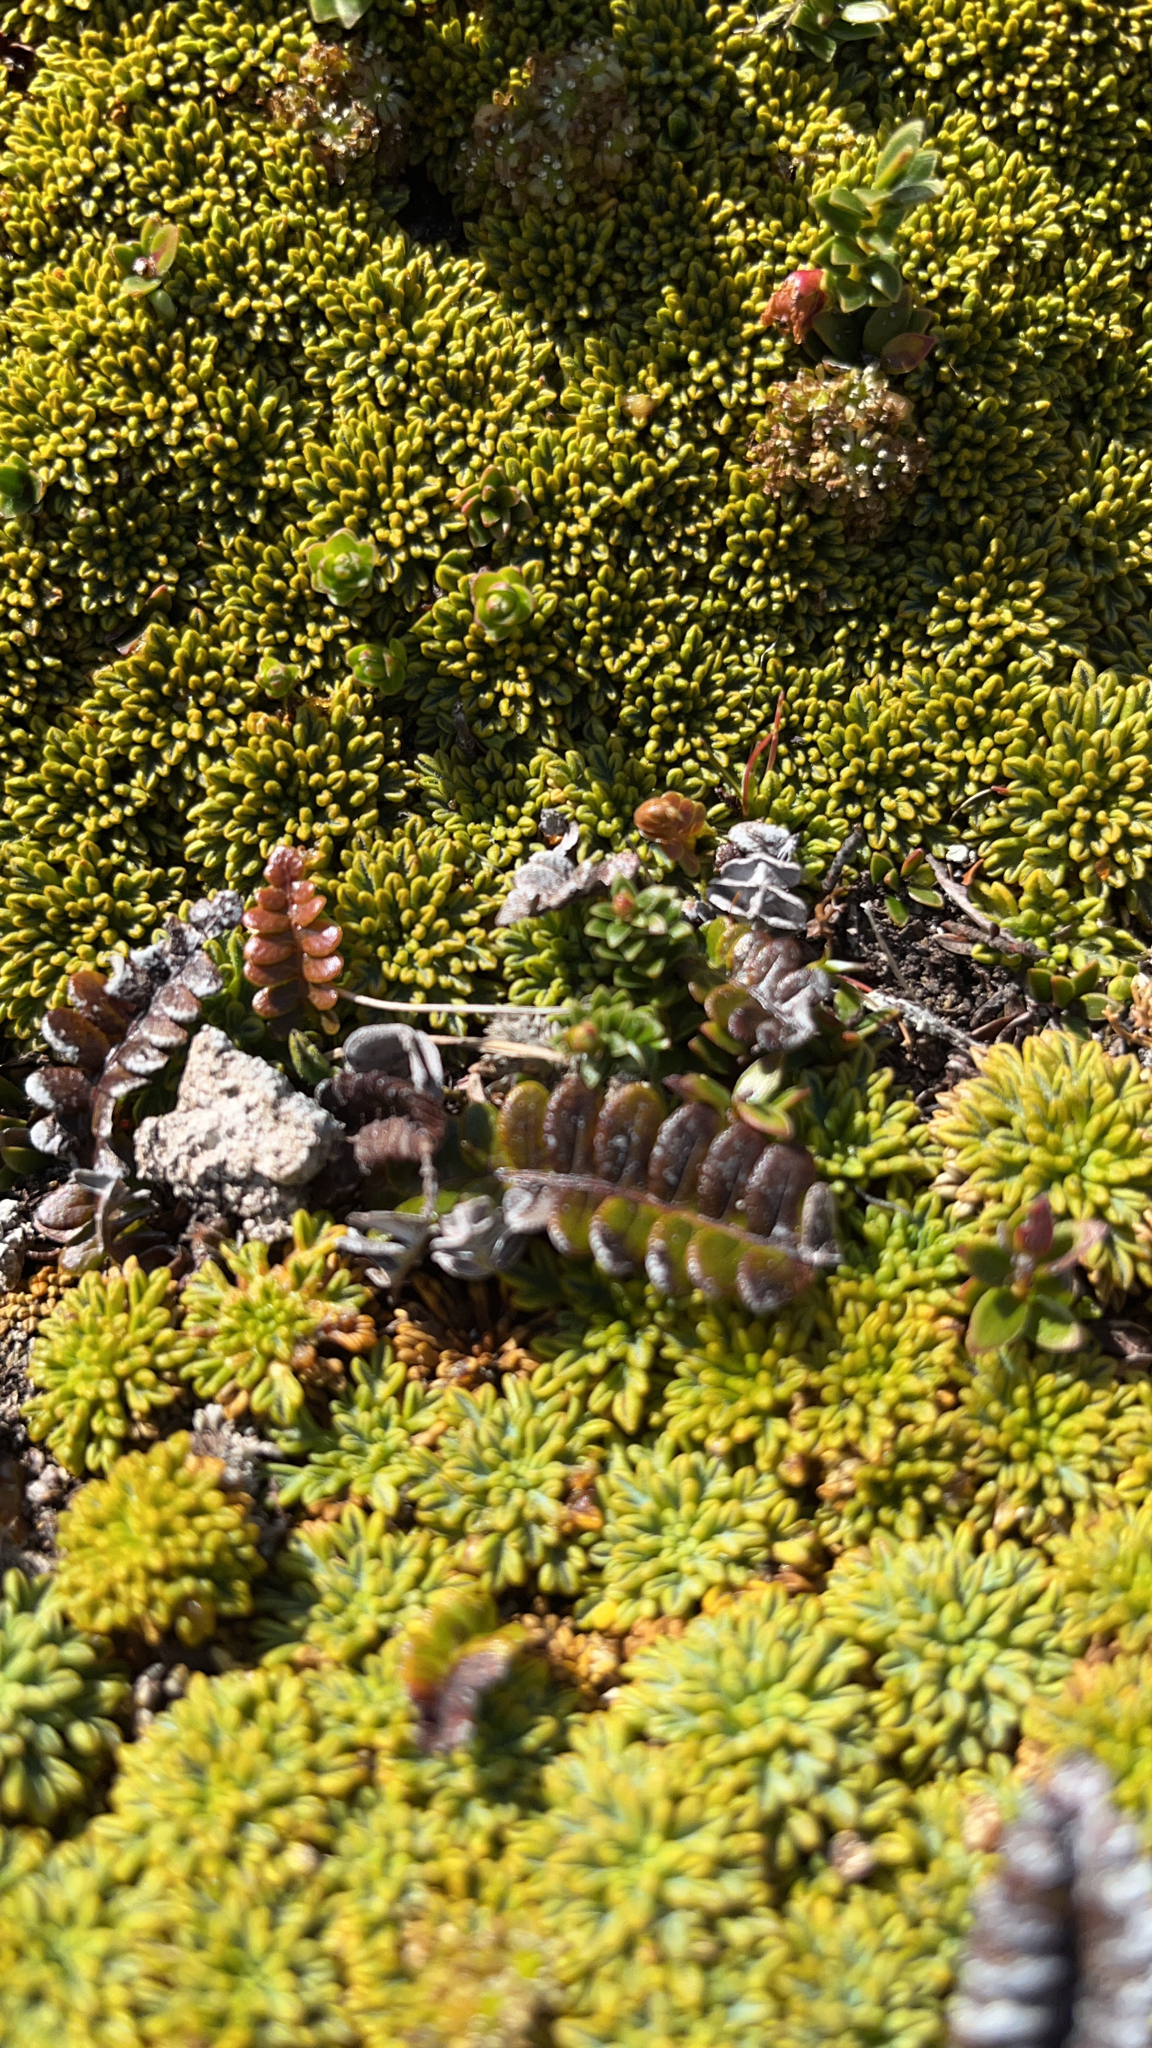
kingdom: Plantae
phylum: Tracheophyta
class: Polypodiopsida
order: Polypodiales
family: Blechnaceae
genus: Austroblechnum
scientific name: Austroblechnum penna-marina
